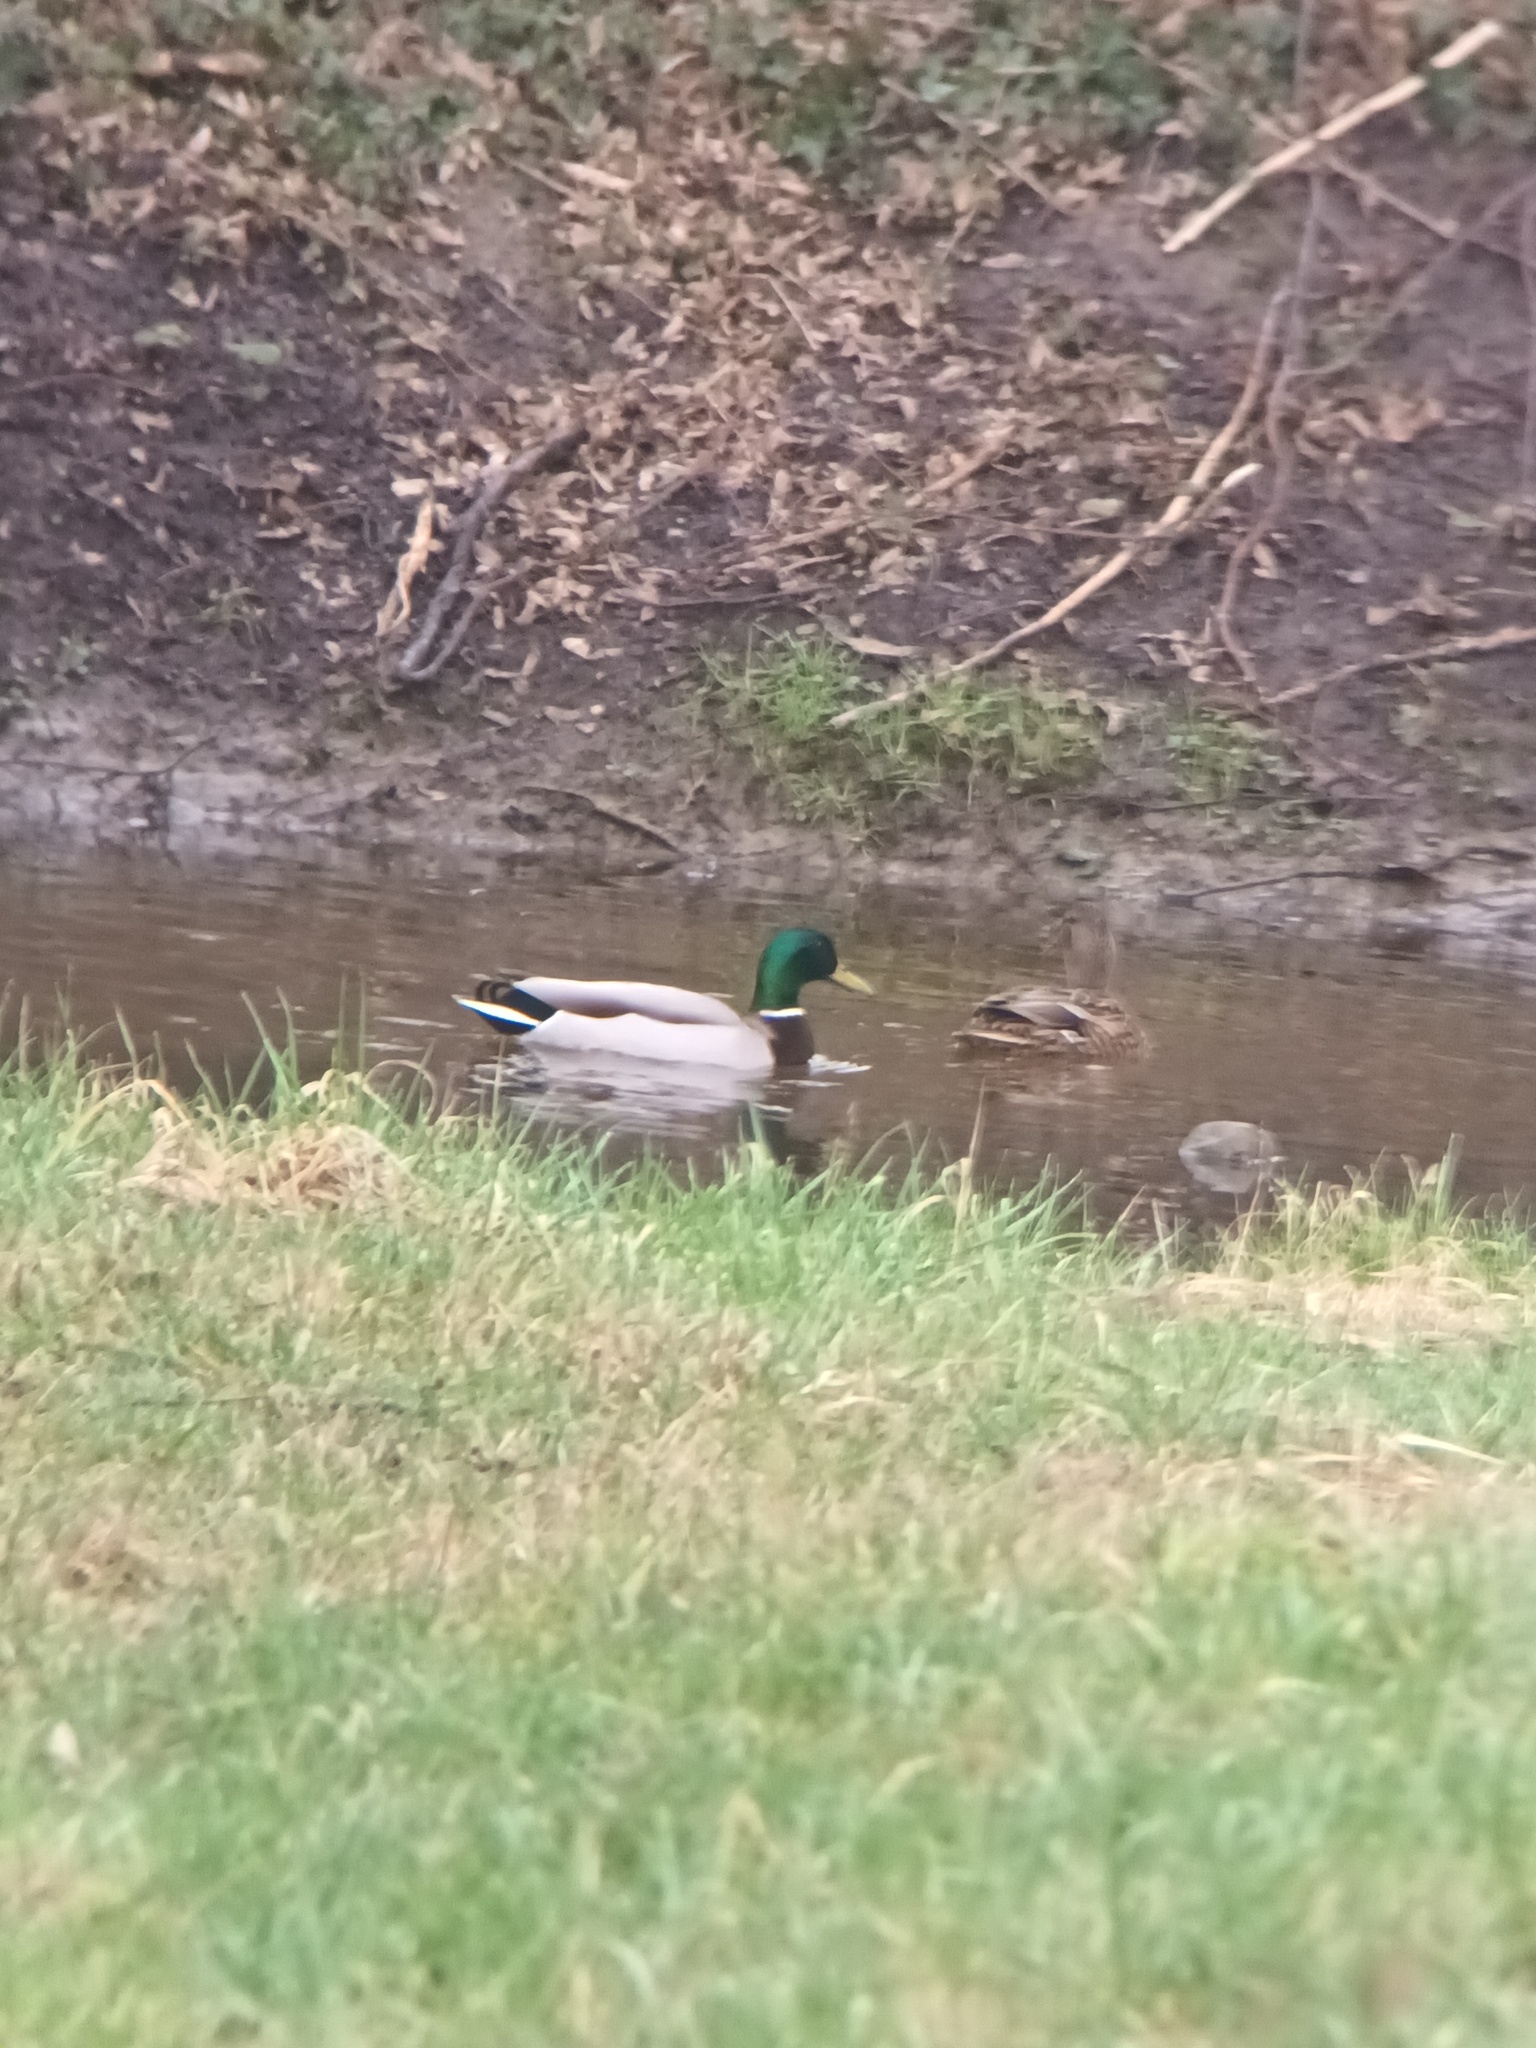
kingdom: Animalia
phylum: Chordata
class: Aves
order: Anseriformes
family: Anatidae
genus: Anas
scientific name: Anas platyrhynchos
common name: Mallard
